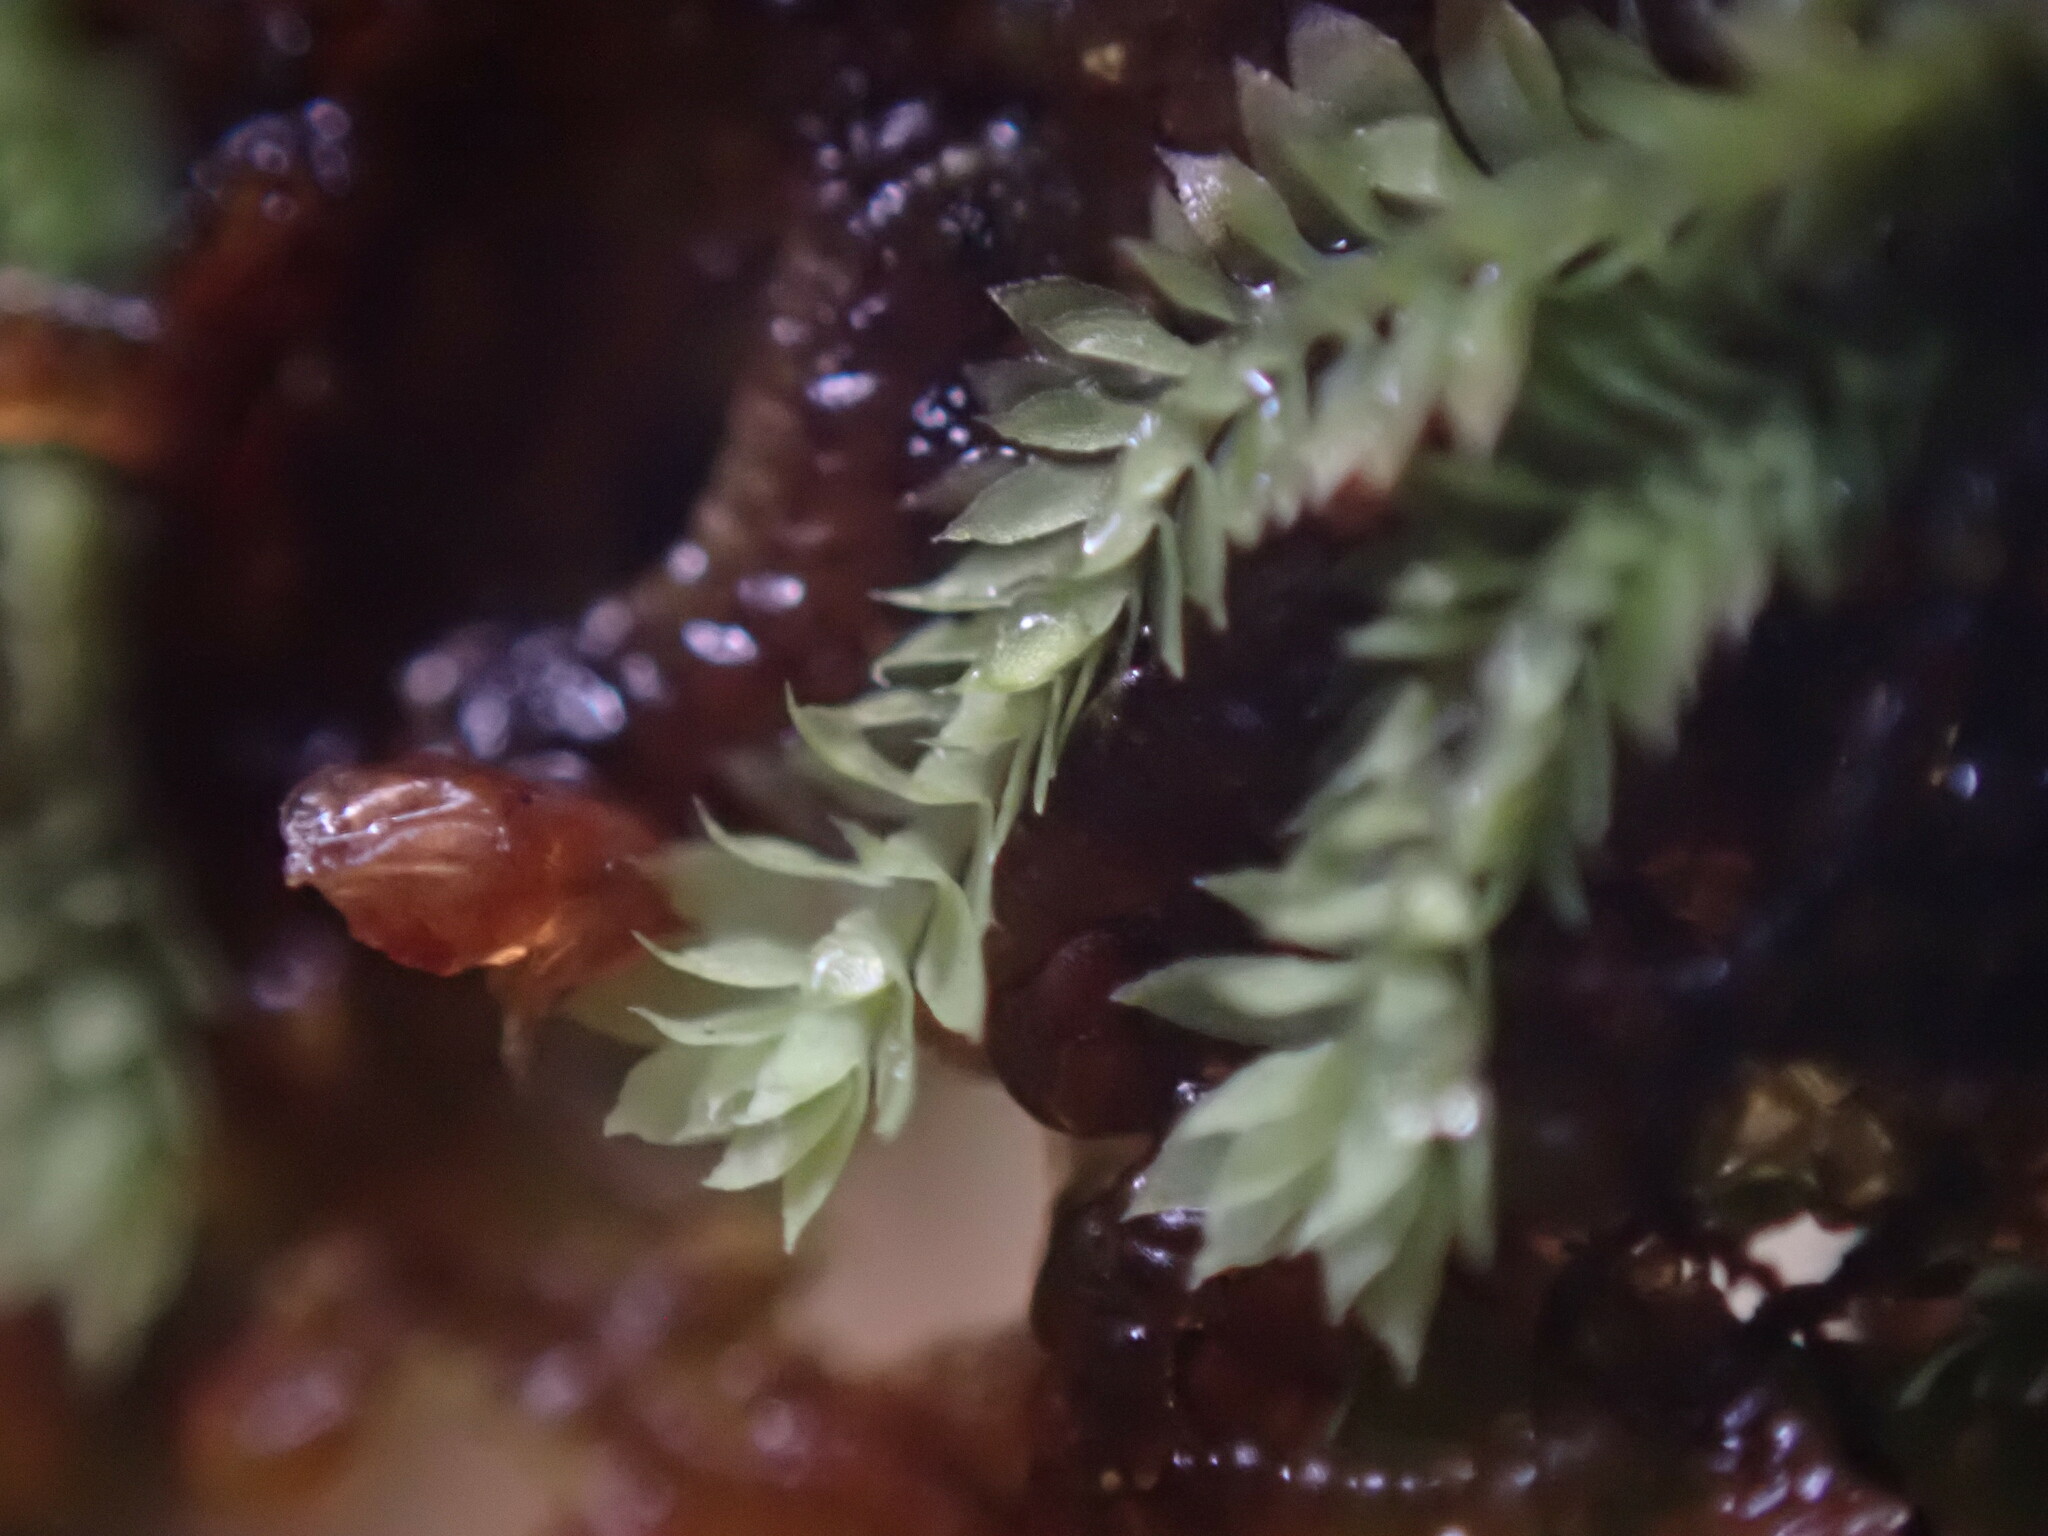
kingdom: Plantae
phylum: Marchantiophyta
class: Jungermanniopsida
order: Jungermanniales
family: Scapaniaceae
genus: Douinia
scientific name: Douinia ovata
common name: Waxy earwort
